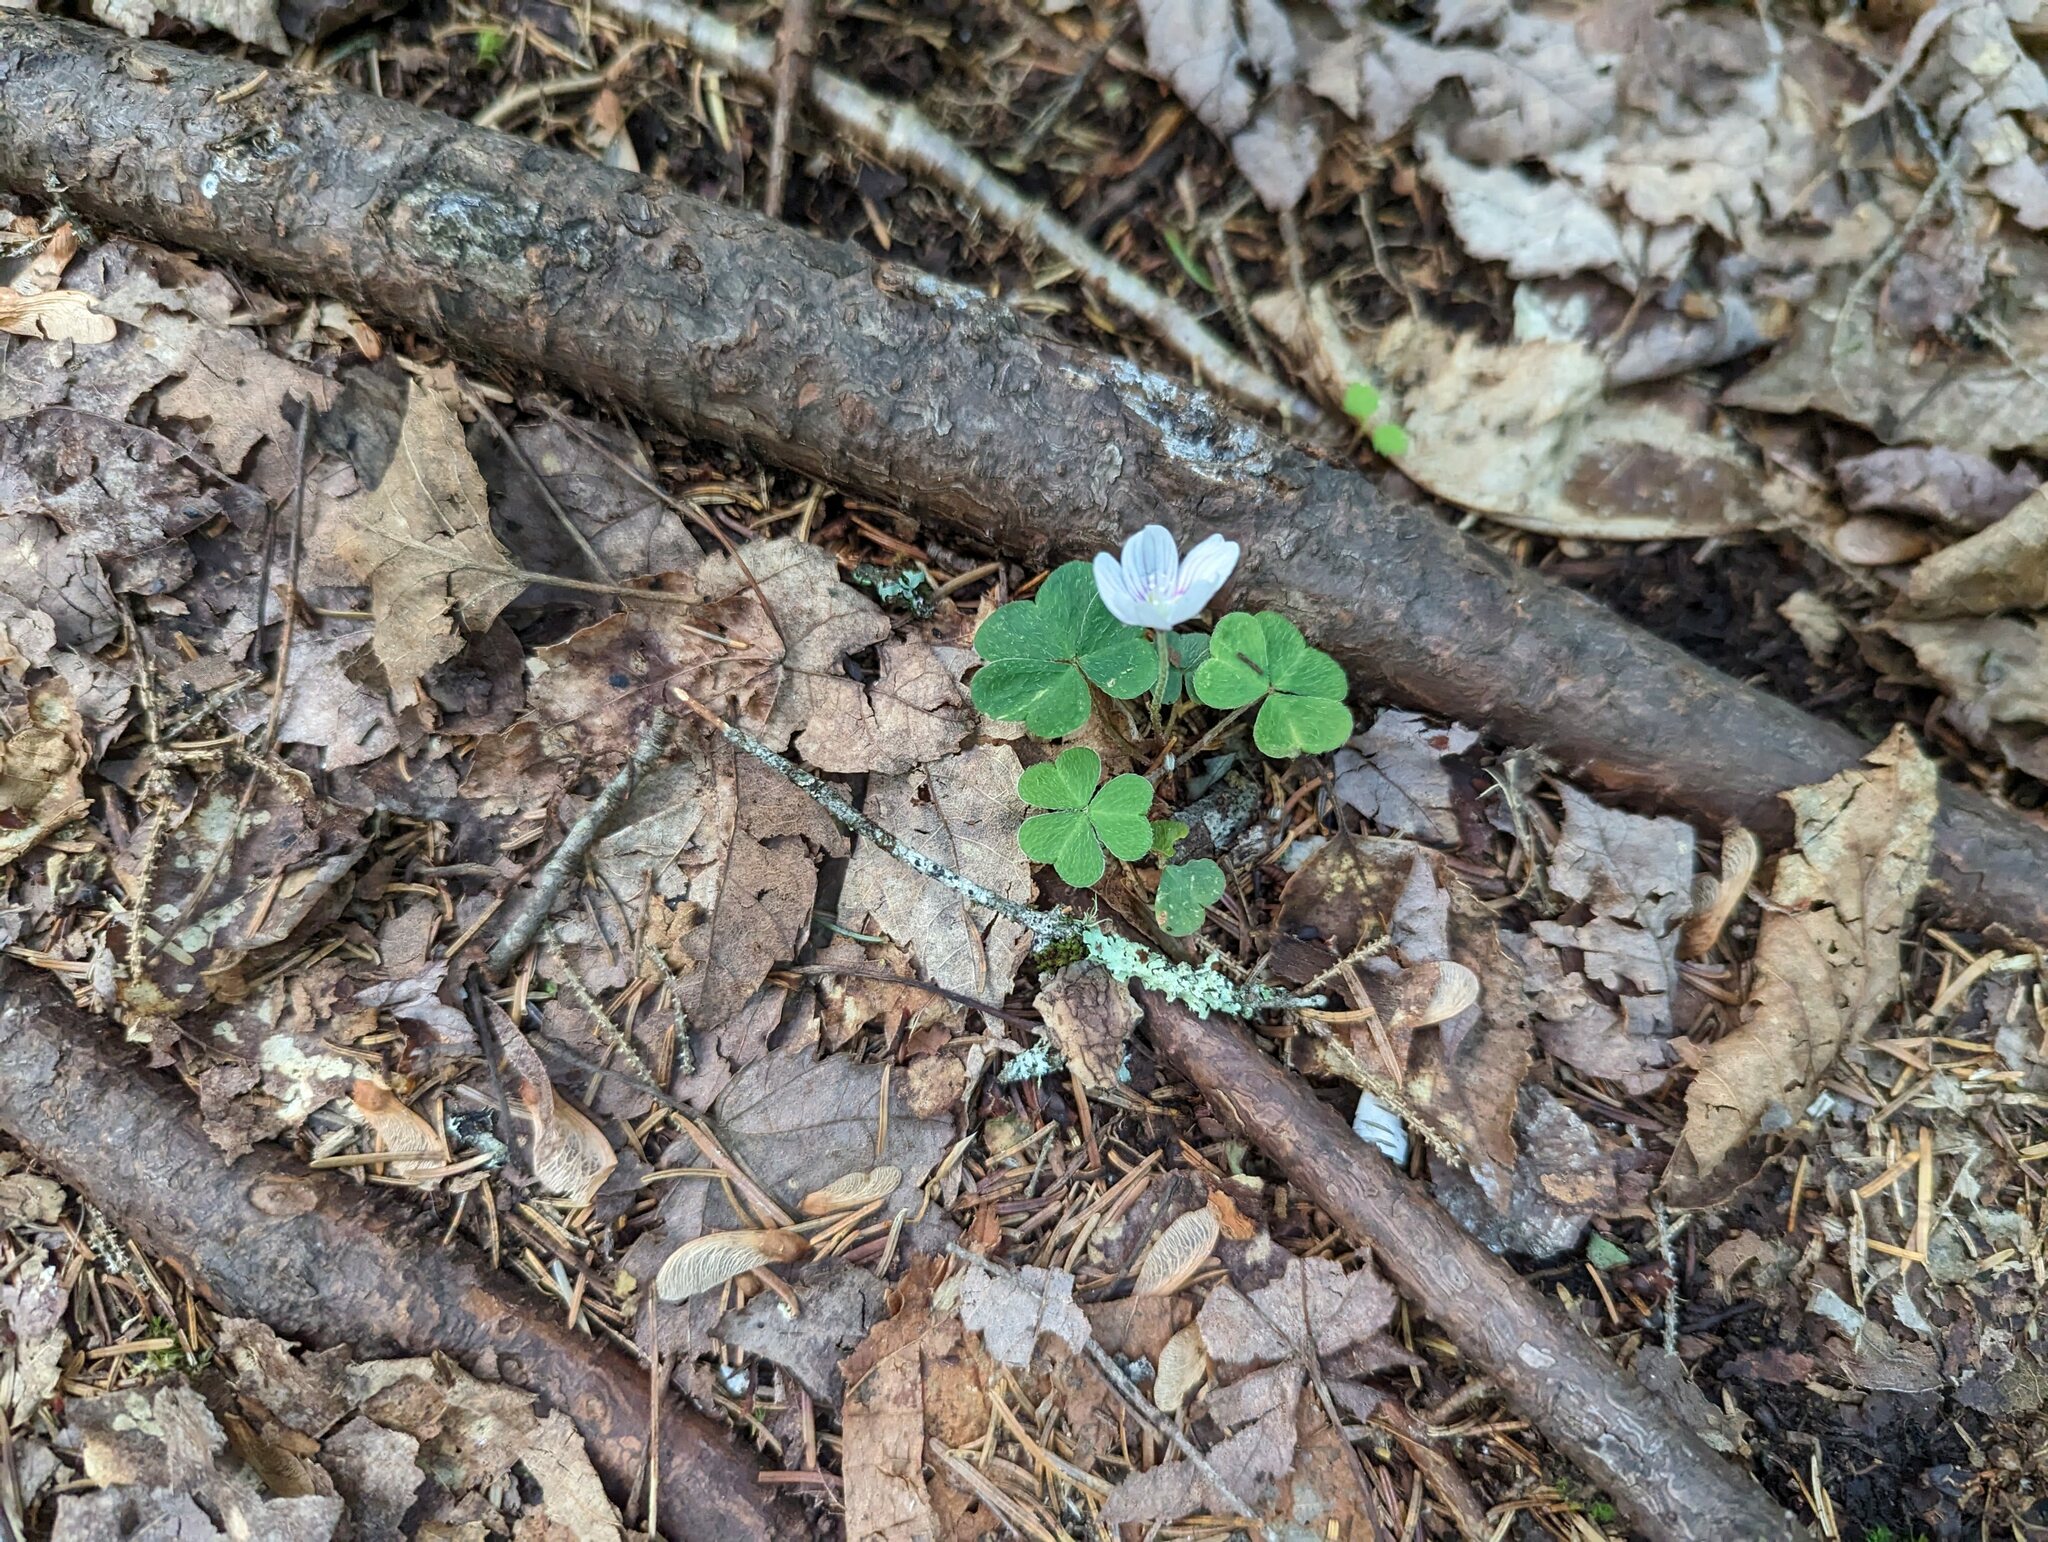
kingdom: Plantae
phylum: Tracheophyta
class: Magnoliopsida
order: Oxalidales
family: Oxalidaceae
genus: Oxalis
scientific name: Oxalis montana
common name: American wood-sorrel
